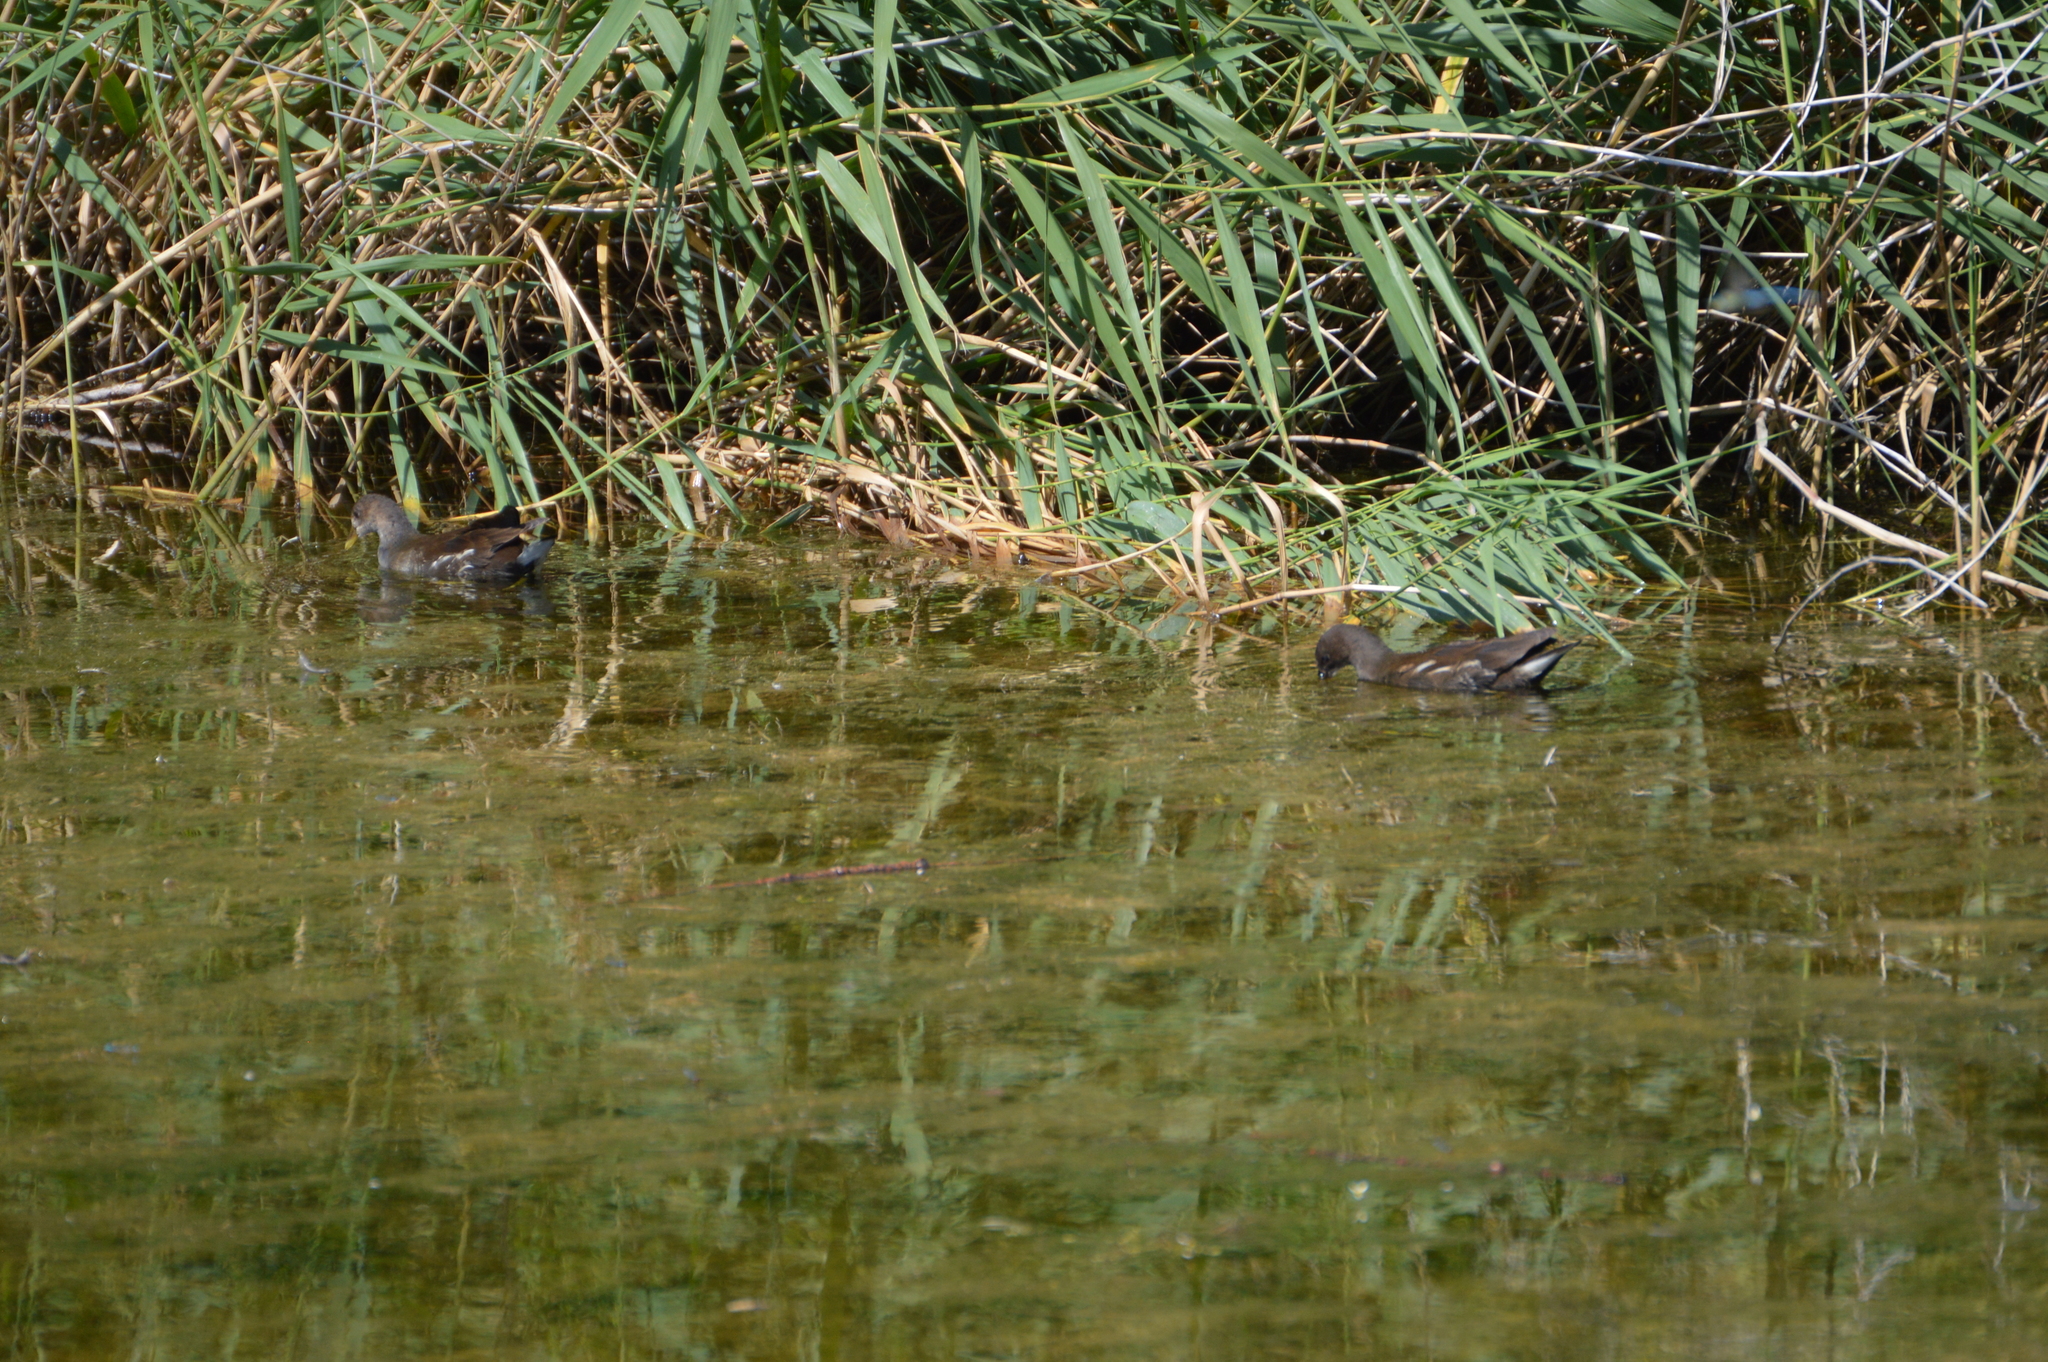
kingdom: Animalia
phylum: Chordata
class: Aves
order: Gruiformes
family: Rallidae
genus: Gallinula
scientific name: Gallinula chloropus
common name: Common moorhen
